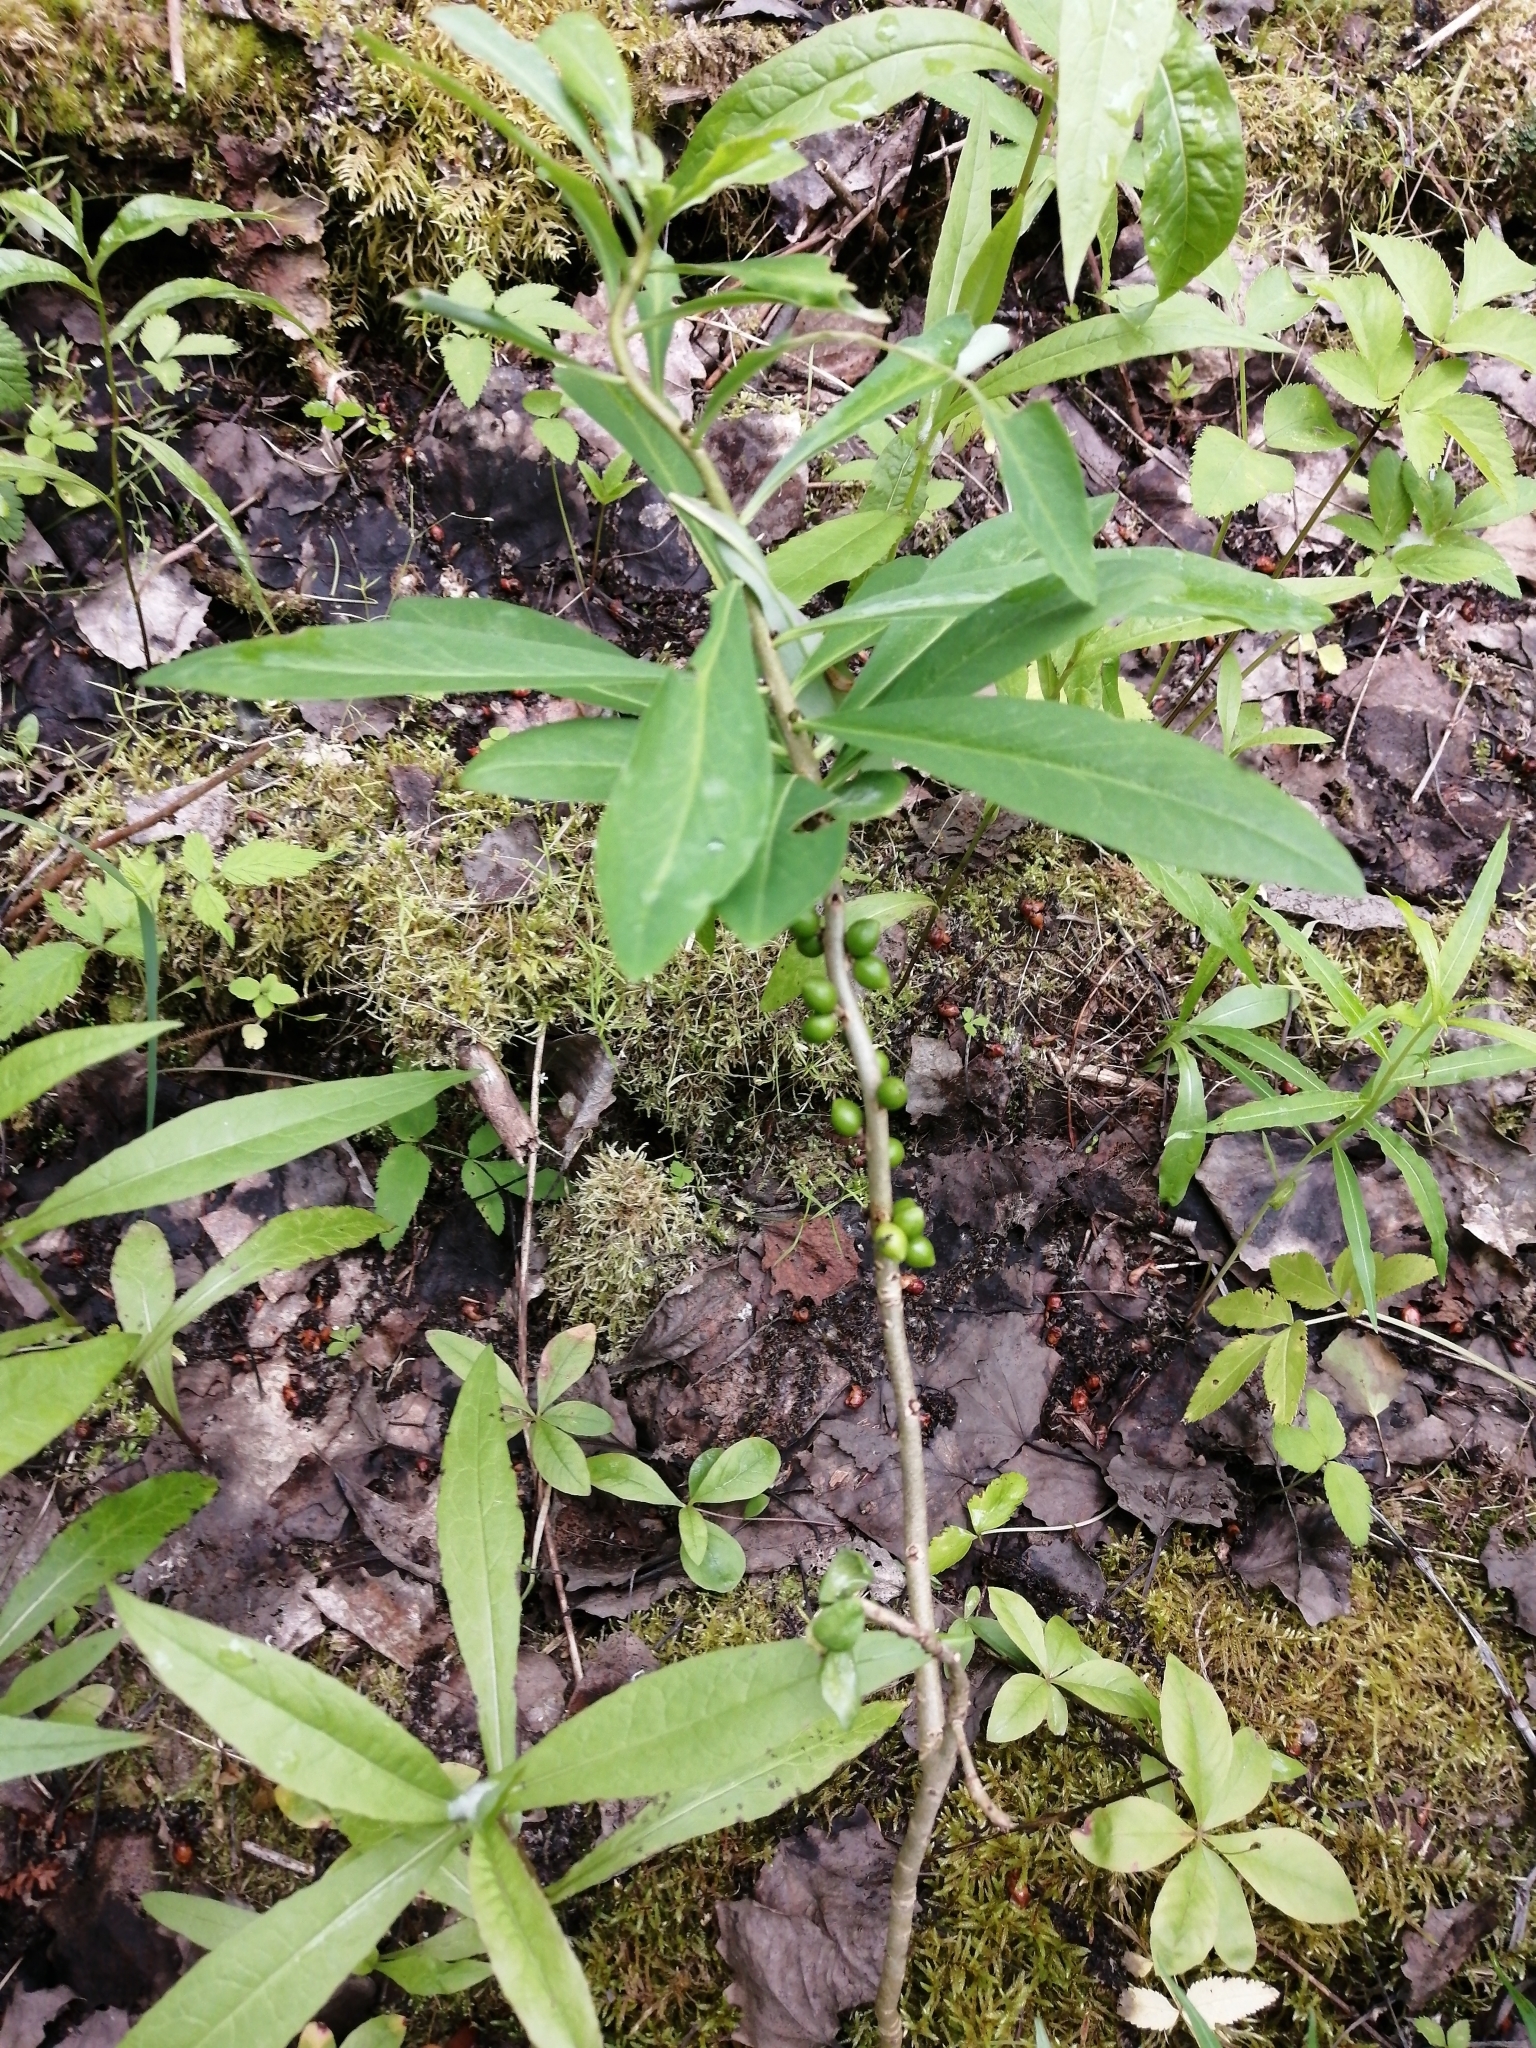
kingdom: Plantae
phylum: Tracheophyta
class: Magnoliopsida
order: Malvales
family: Thymelaeaceae
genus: Daphne
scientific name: Daphne mezereum
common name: Mezereon
